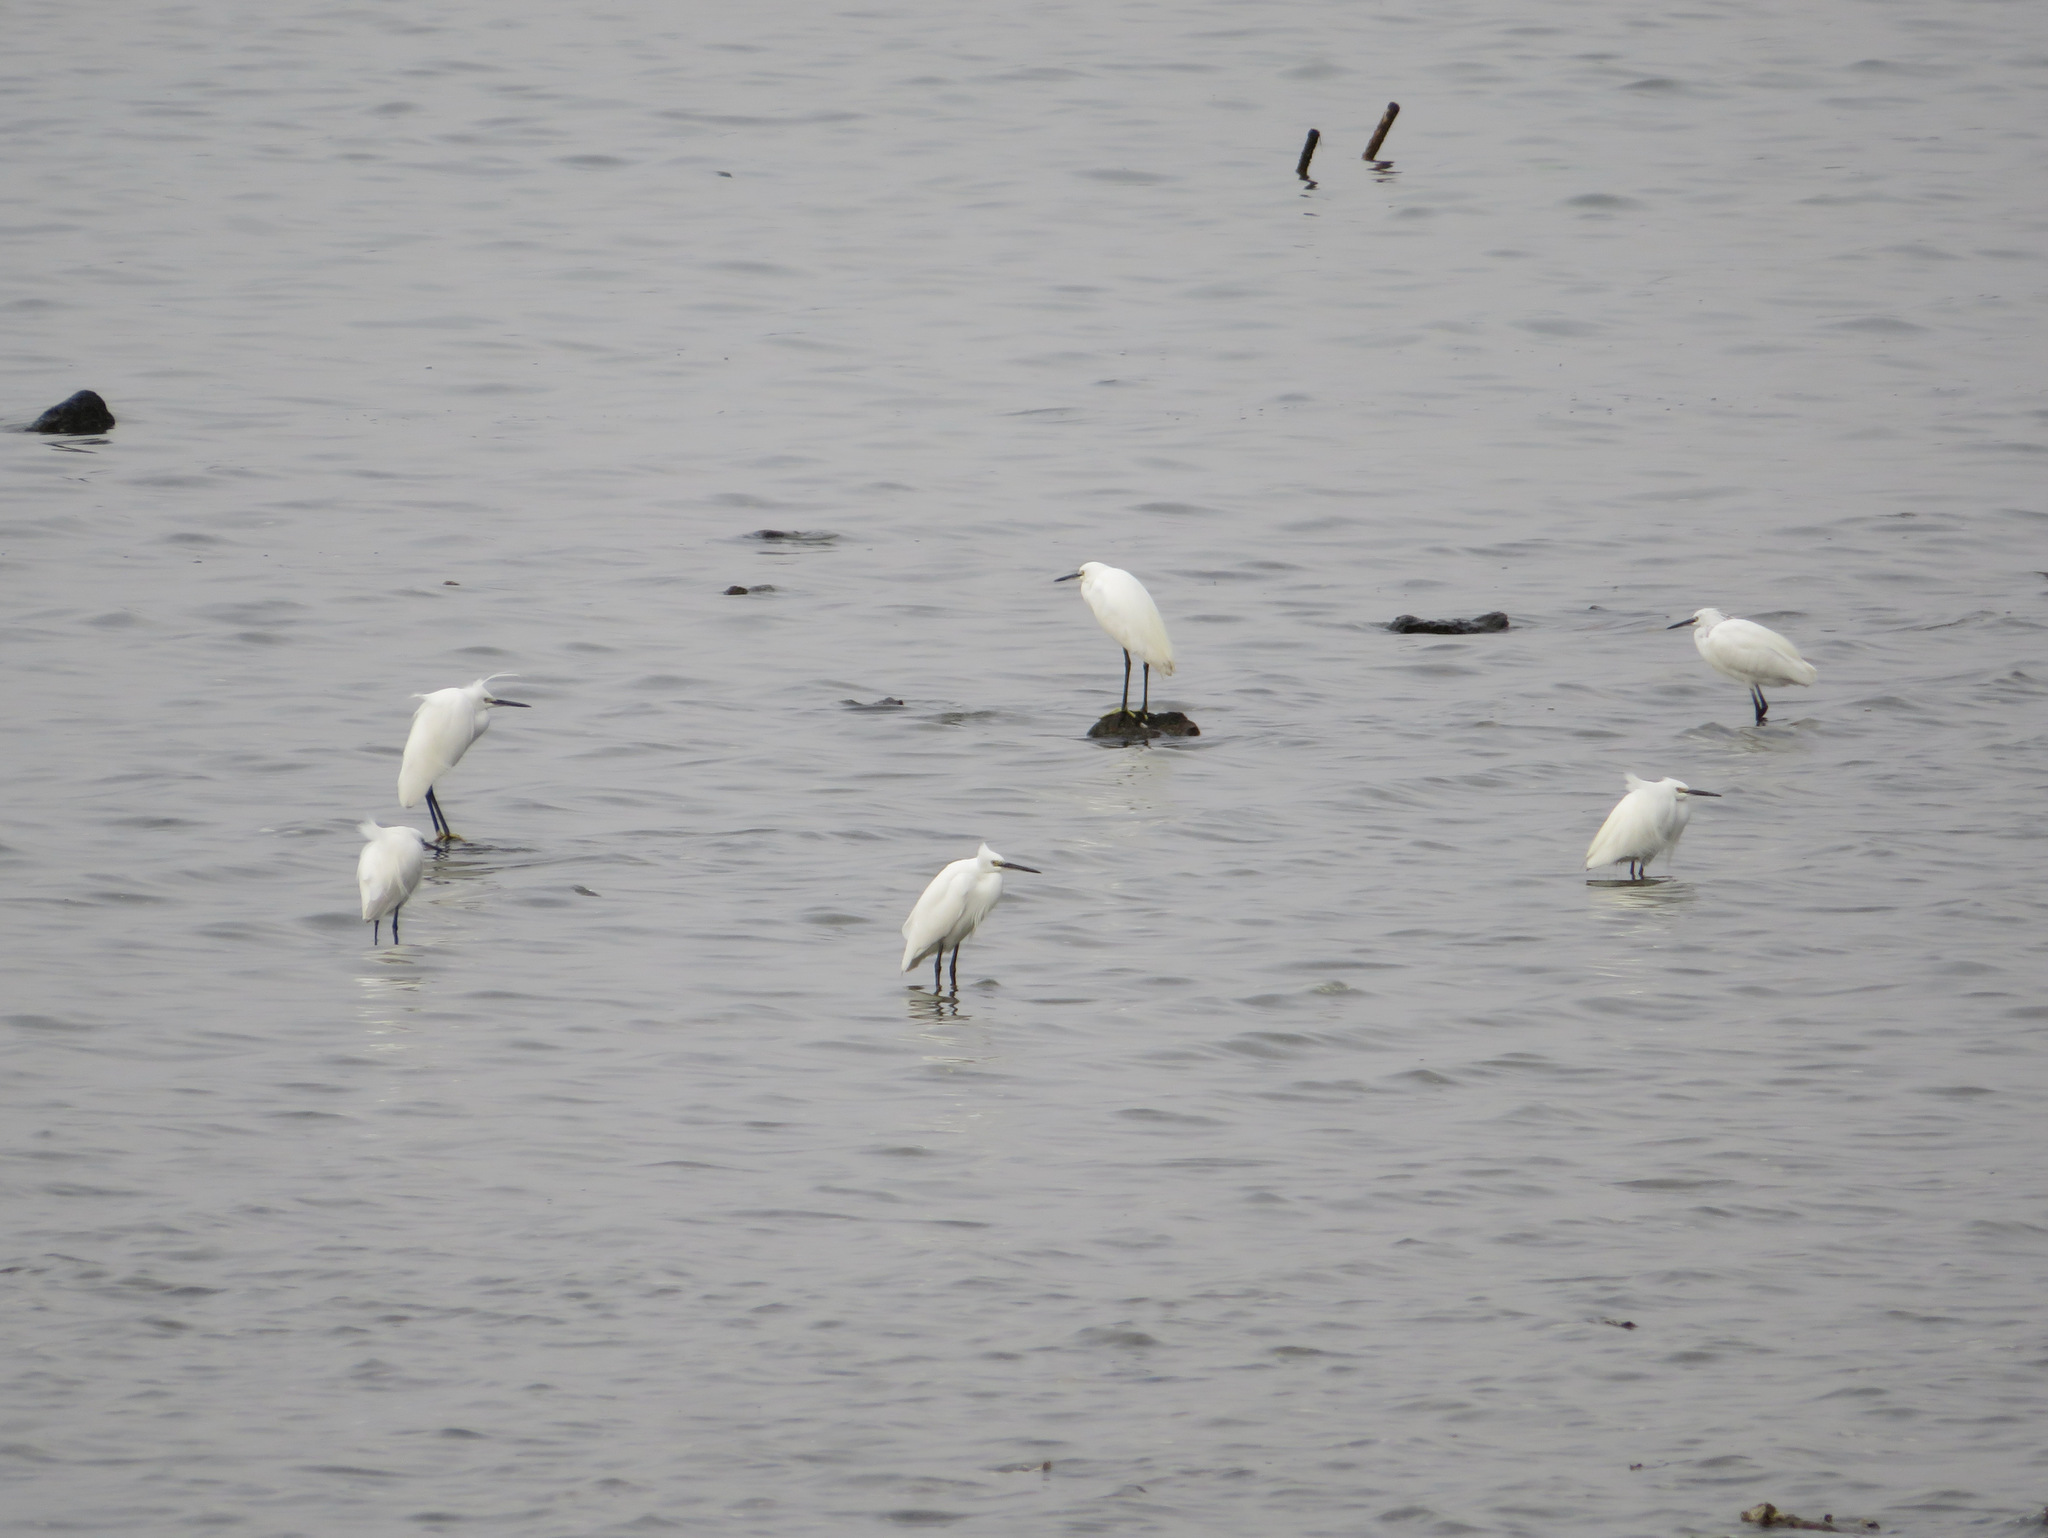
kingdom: Animalia
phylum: Chordata
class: Aves
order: Pelecaniformes
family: Ardeidae
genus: Egretta
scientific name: Egretta garzetta
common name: Little egret
